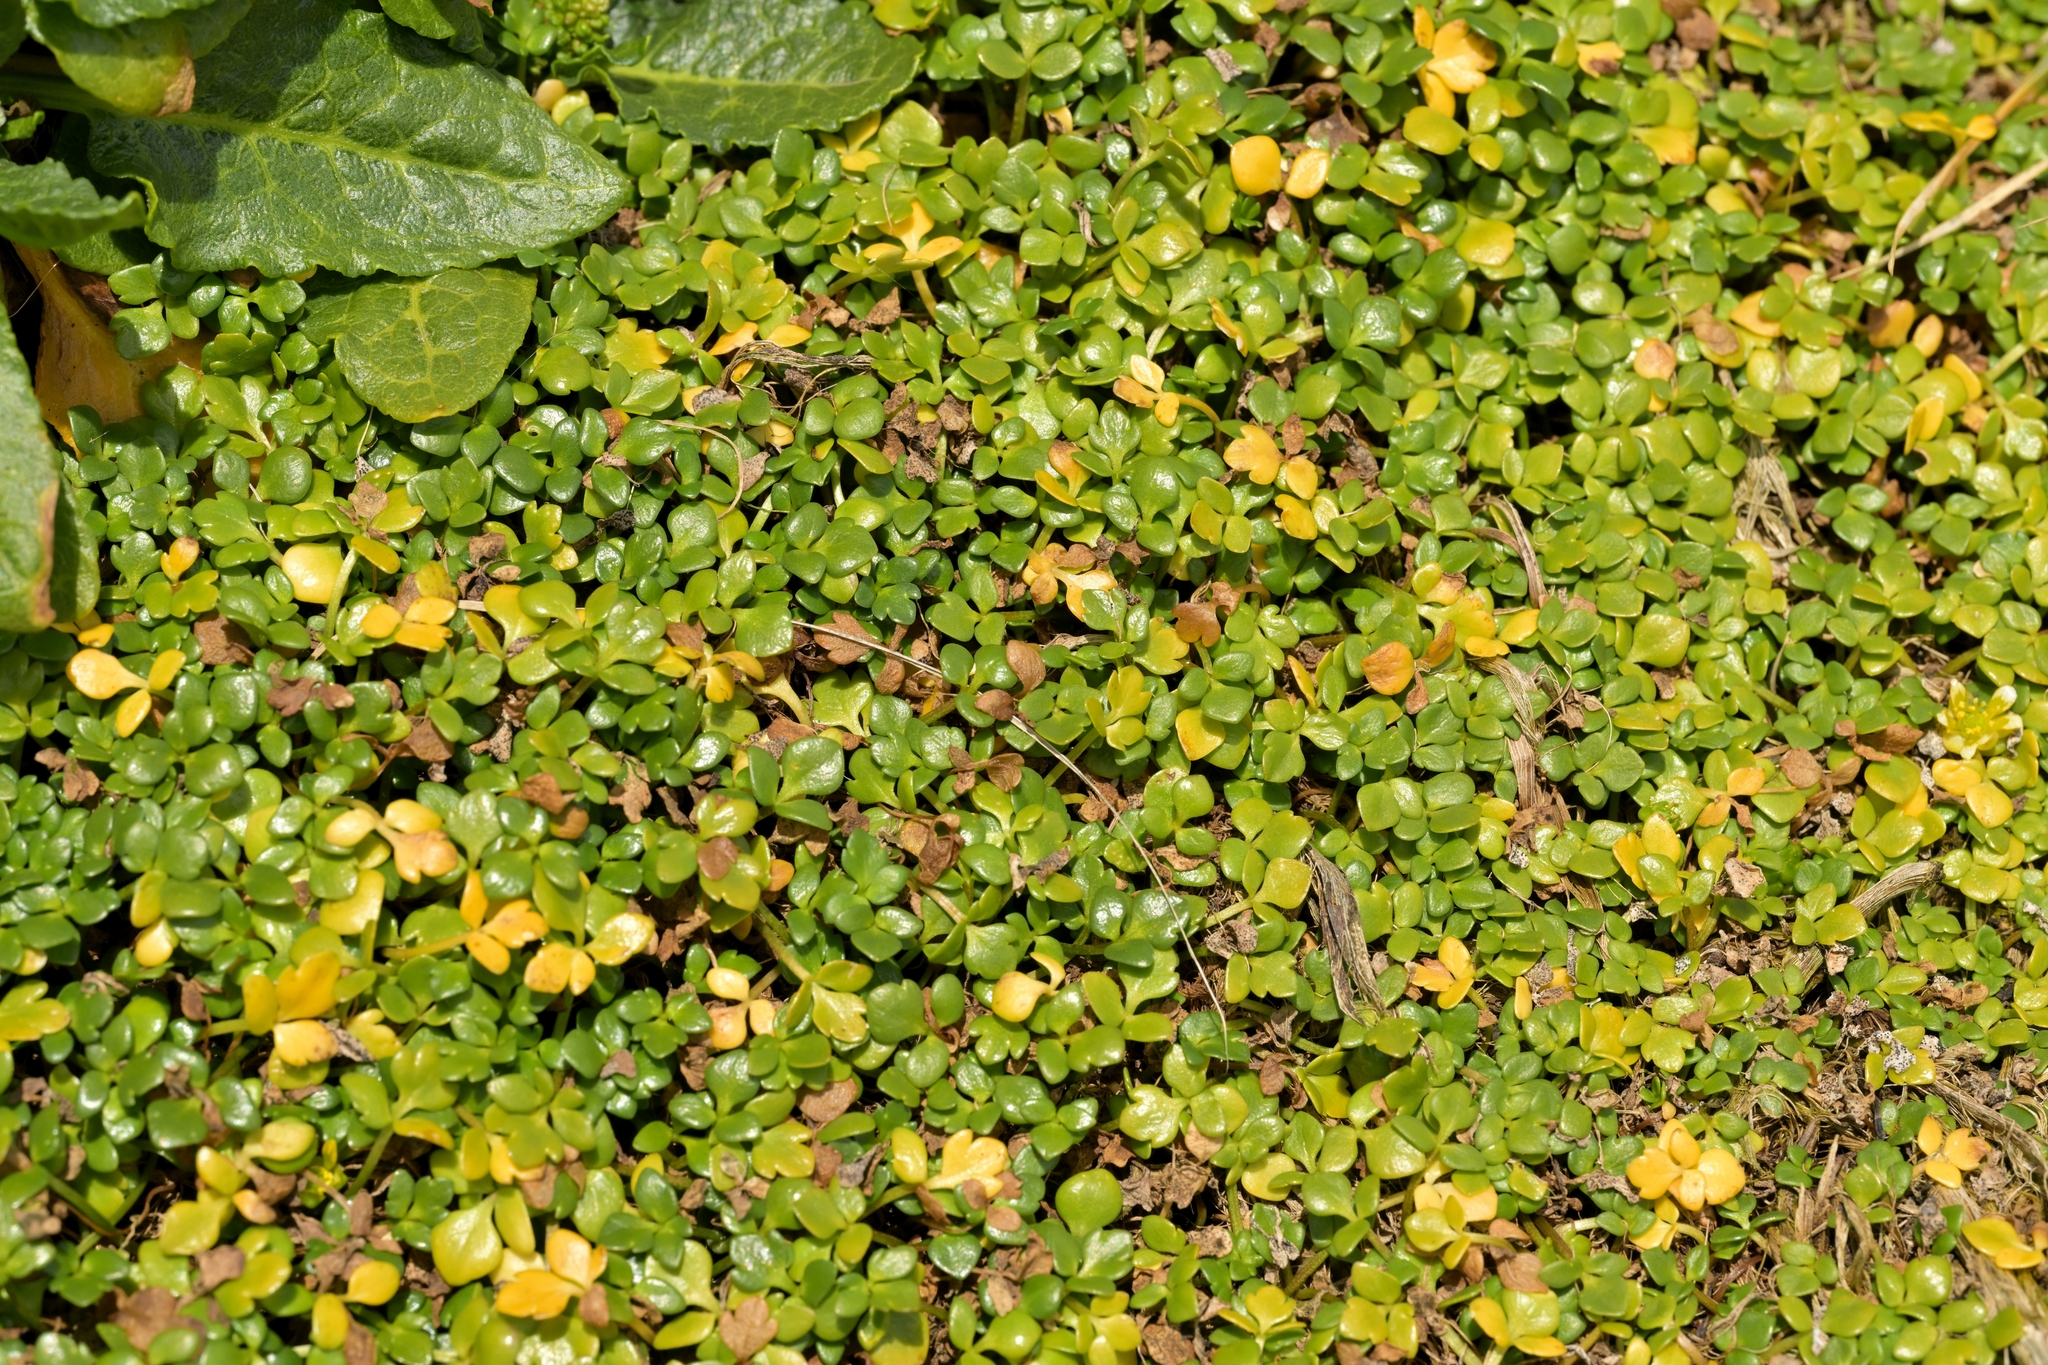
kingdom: Plantae
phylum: Tracheophyta
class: Magnoliopsida
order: Ranunculales
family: Ranunculaceae
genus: Ranunculus
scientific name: Ranunculus acaulis
